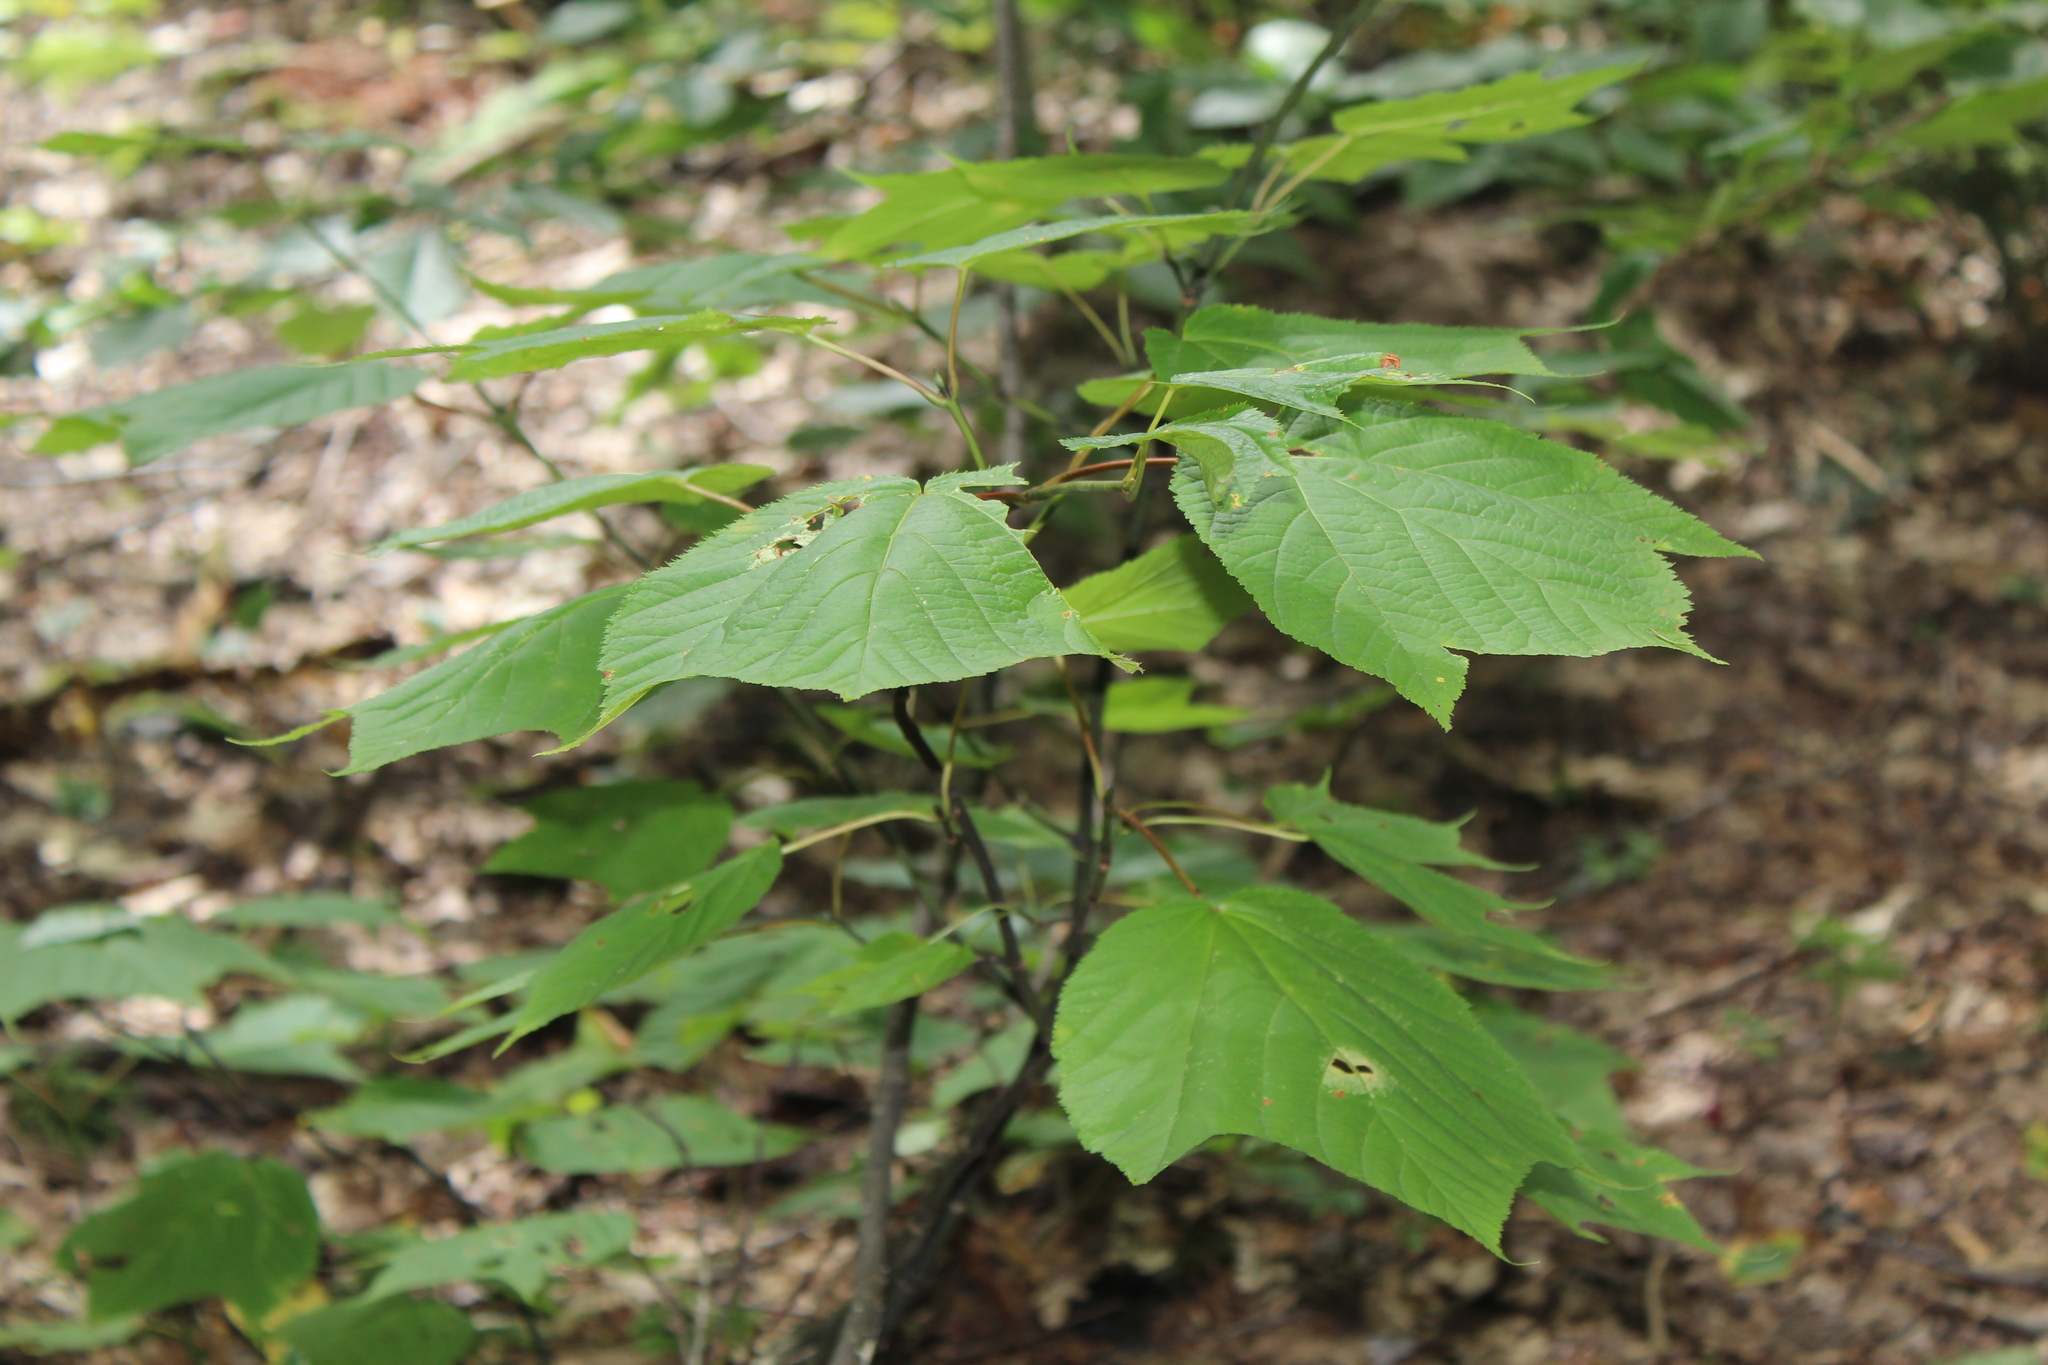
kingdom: Plantae
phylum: Tracheophyta
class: Magnoliopsida
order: Sapindales
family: Sapindaceae
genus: Acer
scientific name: Acer pensylvanicum
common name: Moosewood
